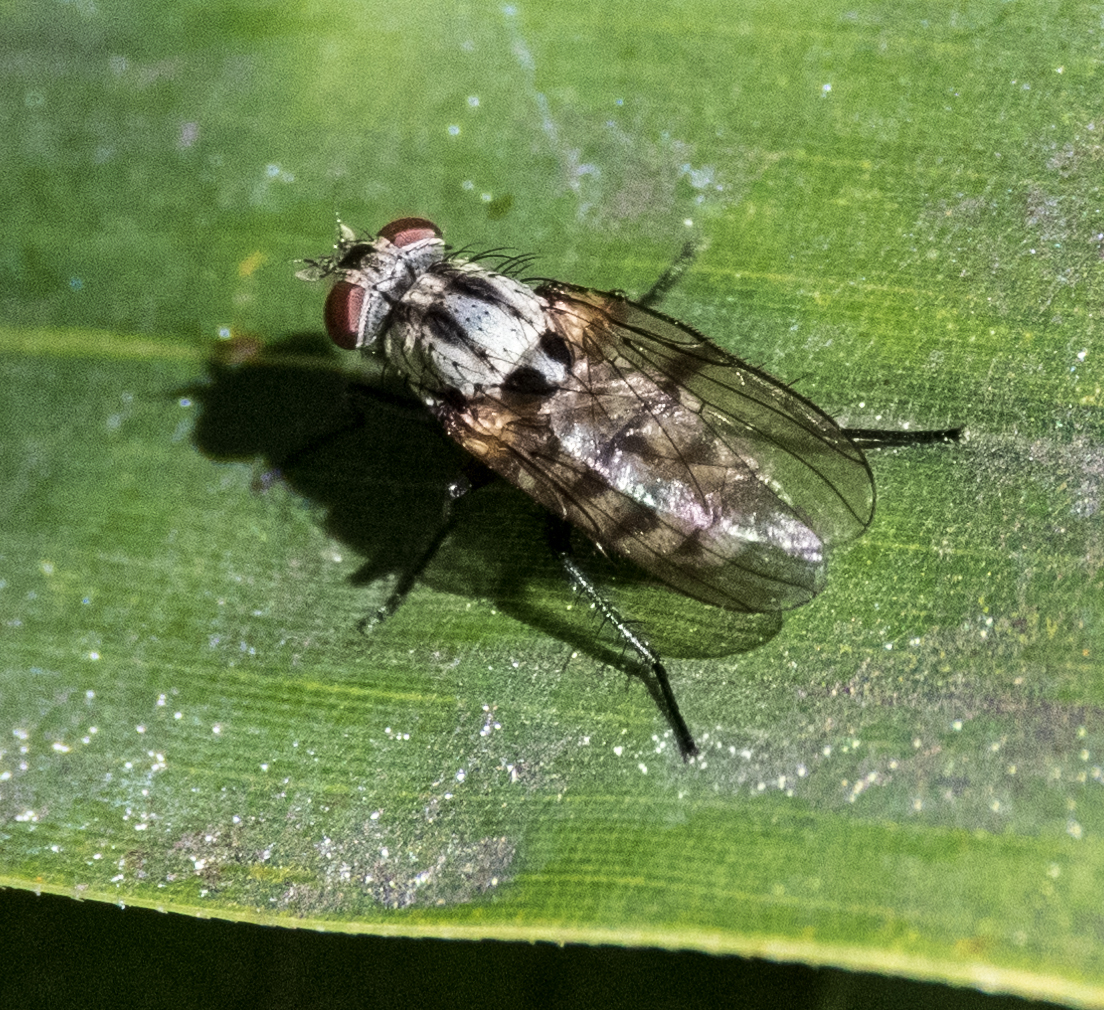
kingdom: Animalia
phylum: Arthropoda
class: Insecta
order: Diptera
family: Anthomyiidae
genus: Anthomyia
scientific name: Anthomyia oculifera
